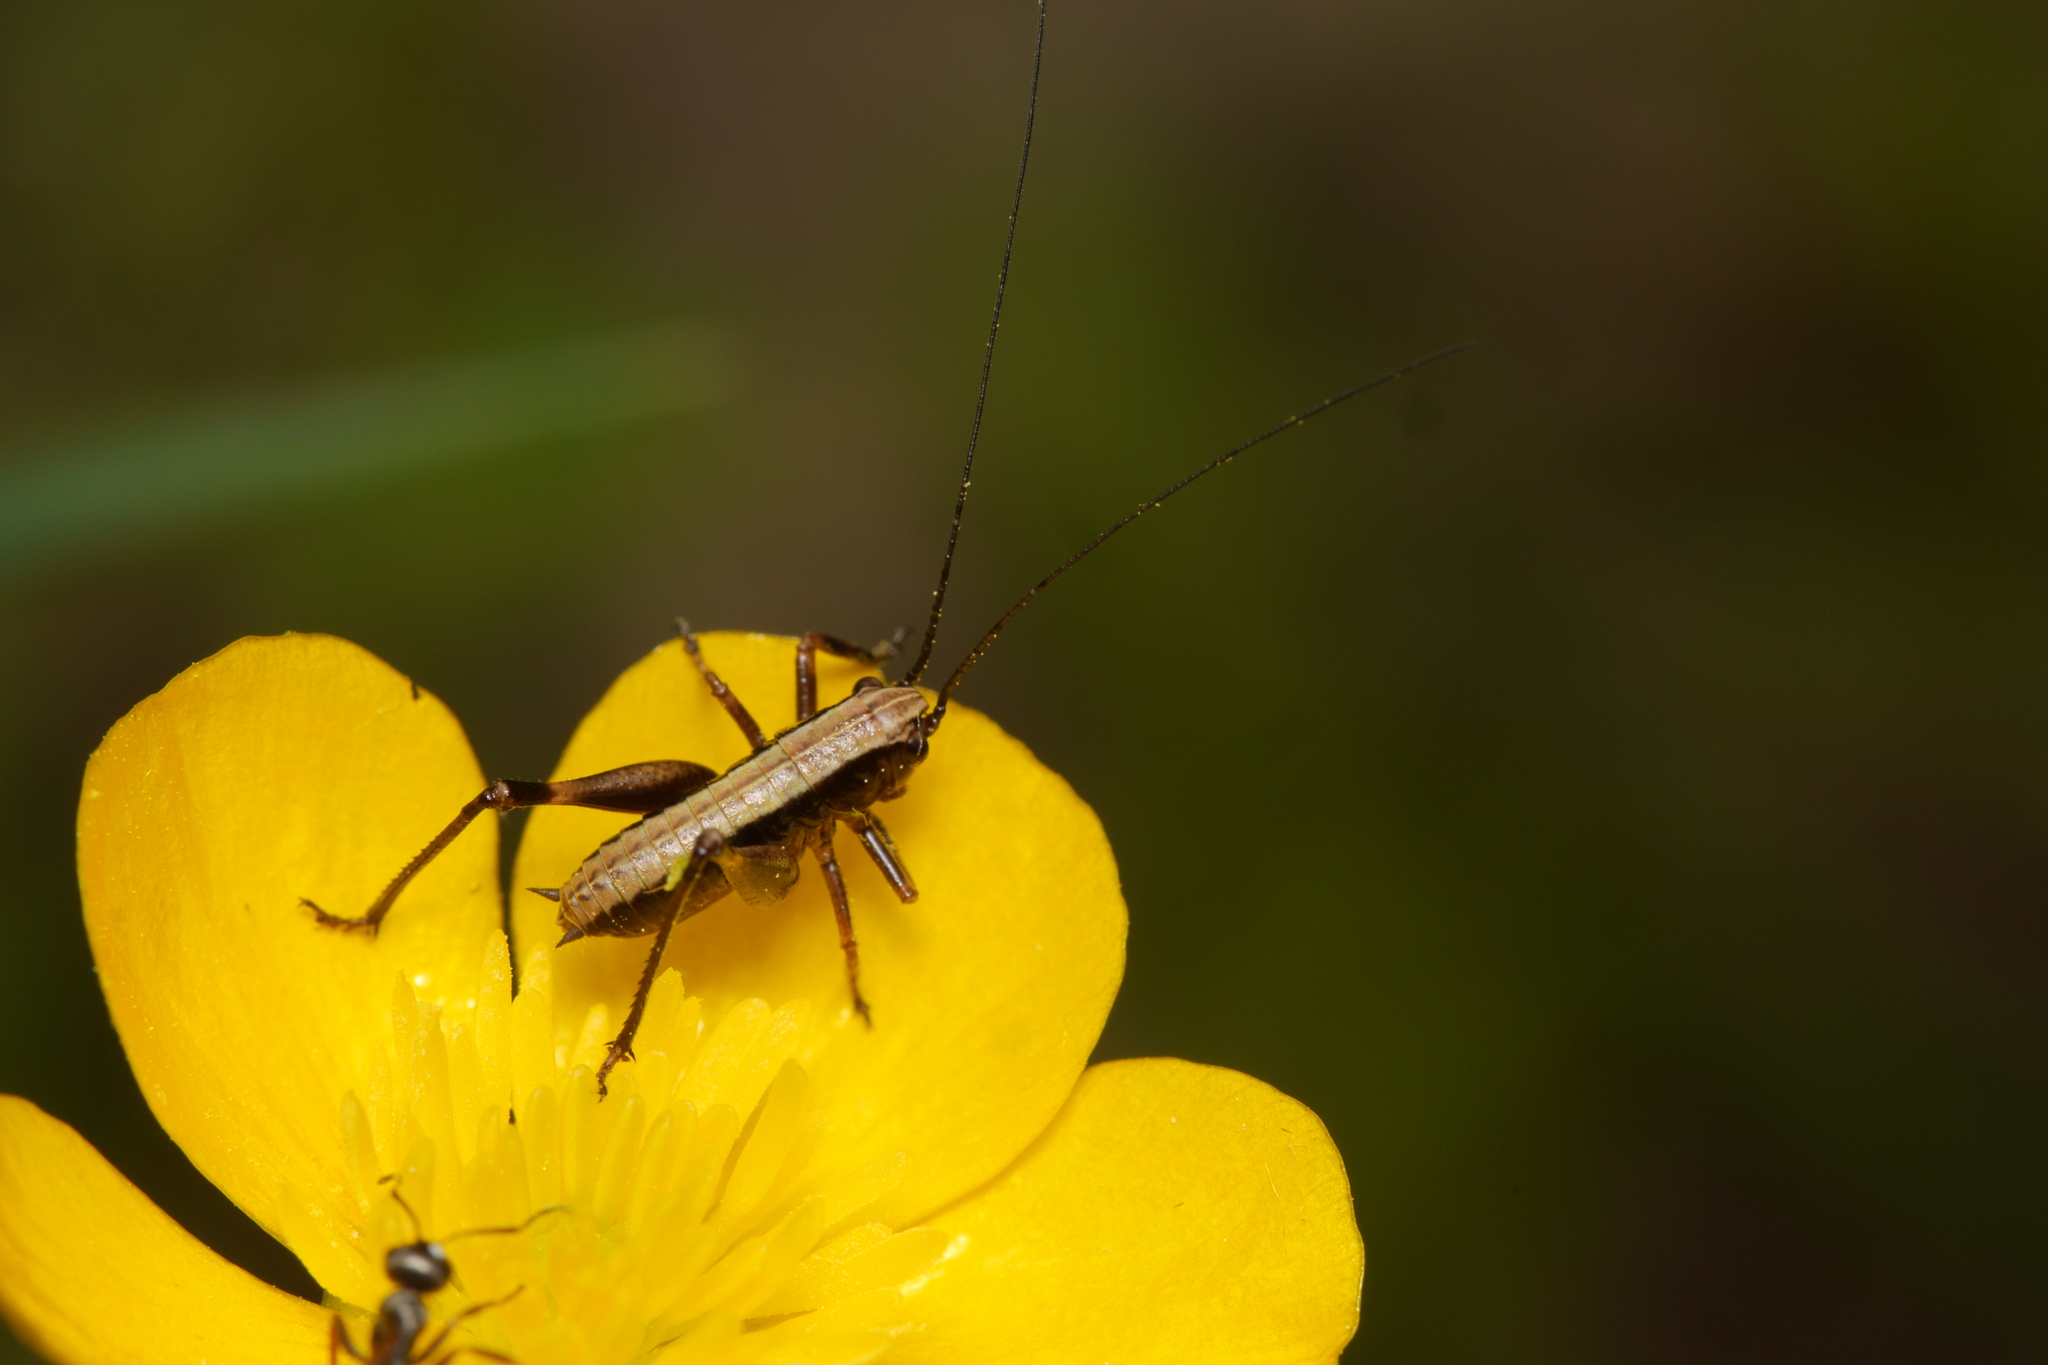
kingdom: Animalia
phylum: Arthropoda
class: Insecta
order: Orthoptera
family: Tettigoniidae
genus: Pholidoptera
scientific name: Pholidoptera griseoaptera
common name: Dark bush-cricket
